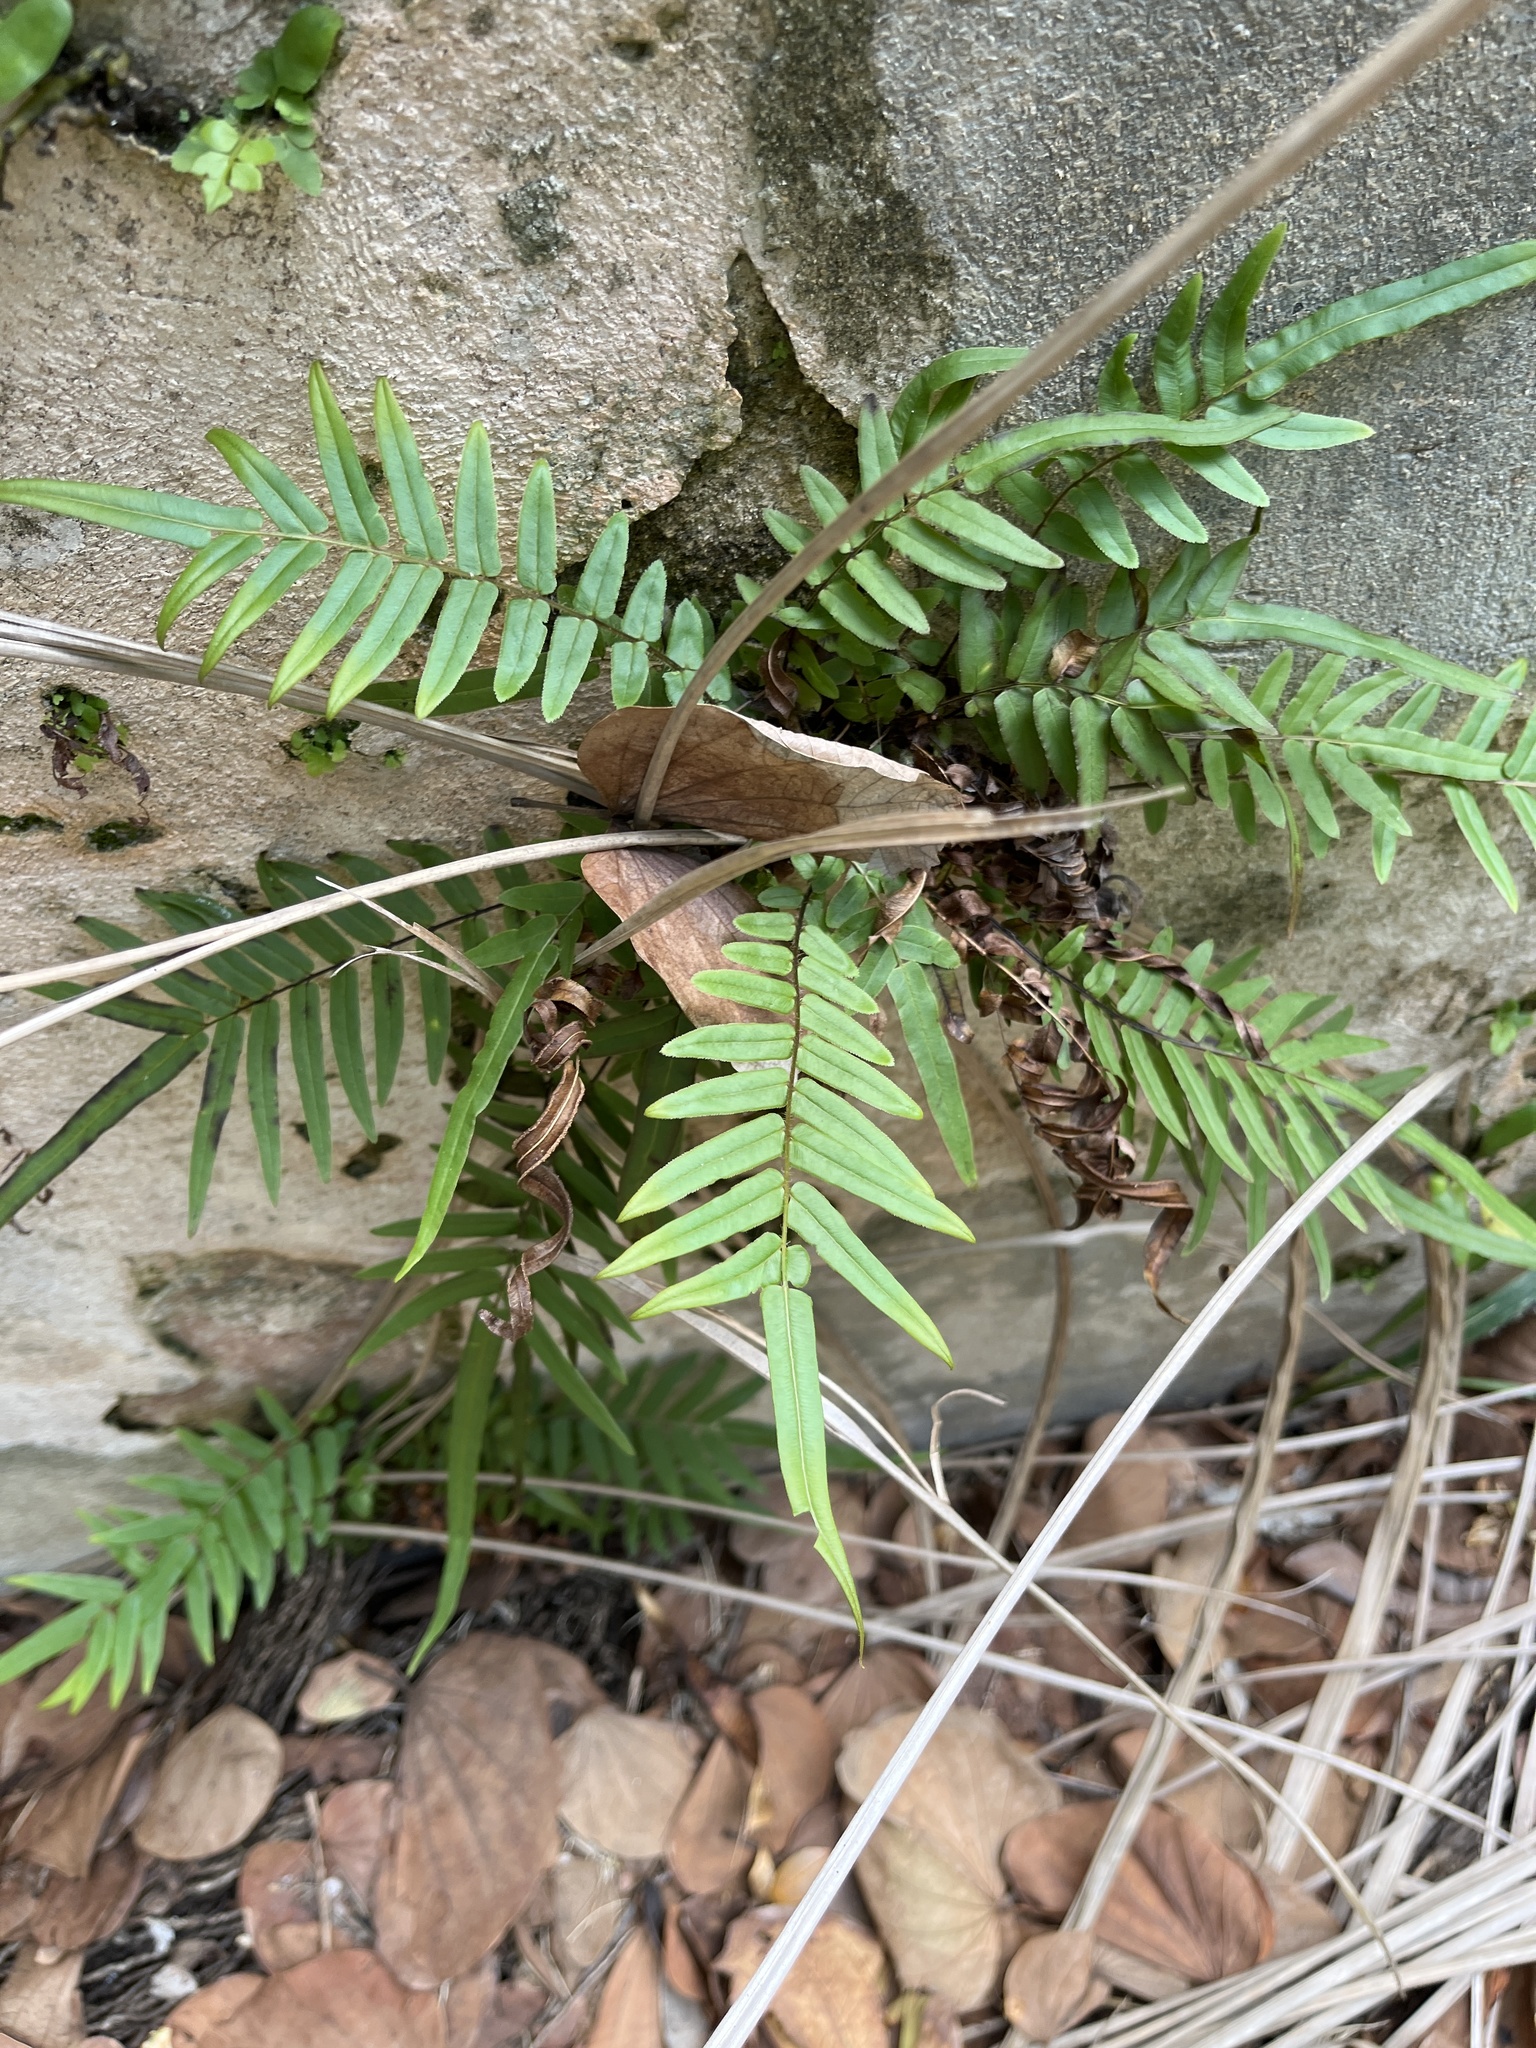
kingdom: Plantae
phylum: Tracheophyta
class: Polypodiopsida
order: Polypodiales
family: Pteridaceae
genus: Pteris
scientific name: Pteris vittata
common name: Ladder brake
